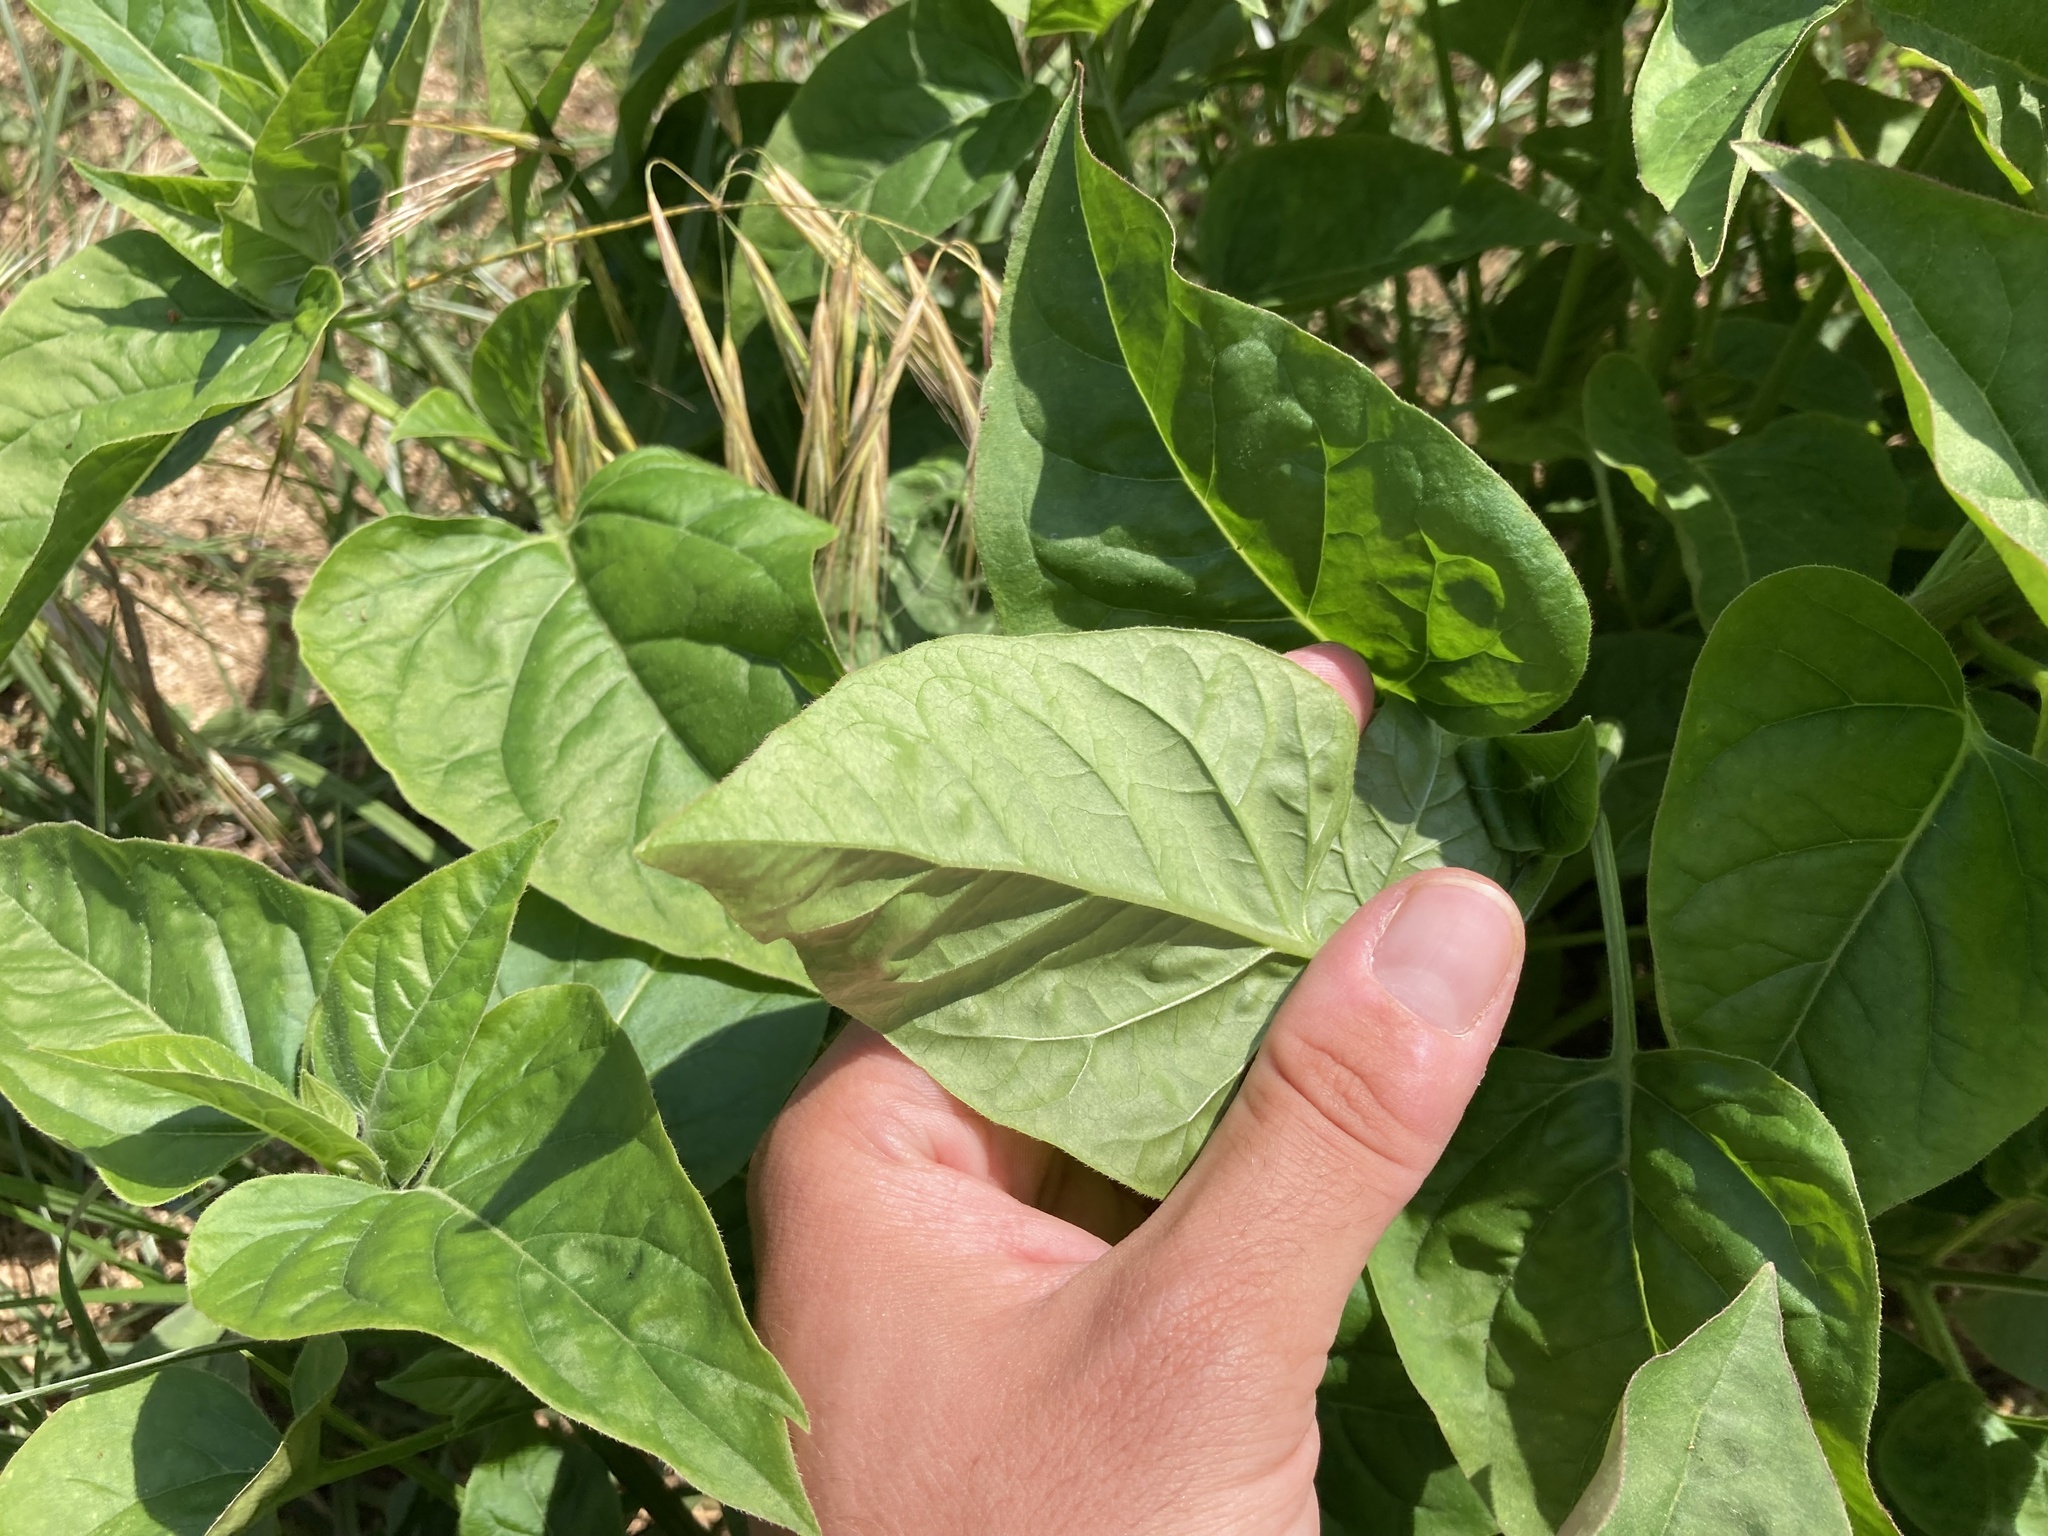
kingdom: Plantae
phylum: Tracheophyta
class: Magnoliopsida
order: Caryophyllales
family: Nyctaginaceae
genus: Mirabilis
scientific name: Mirabilis jalapa
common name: Marvel-of-peru
